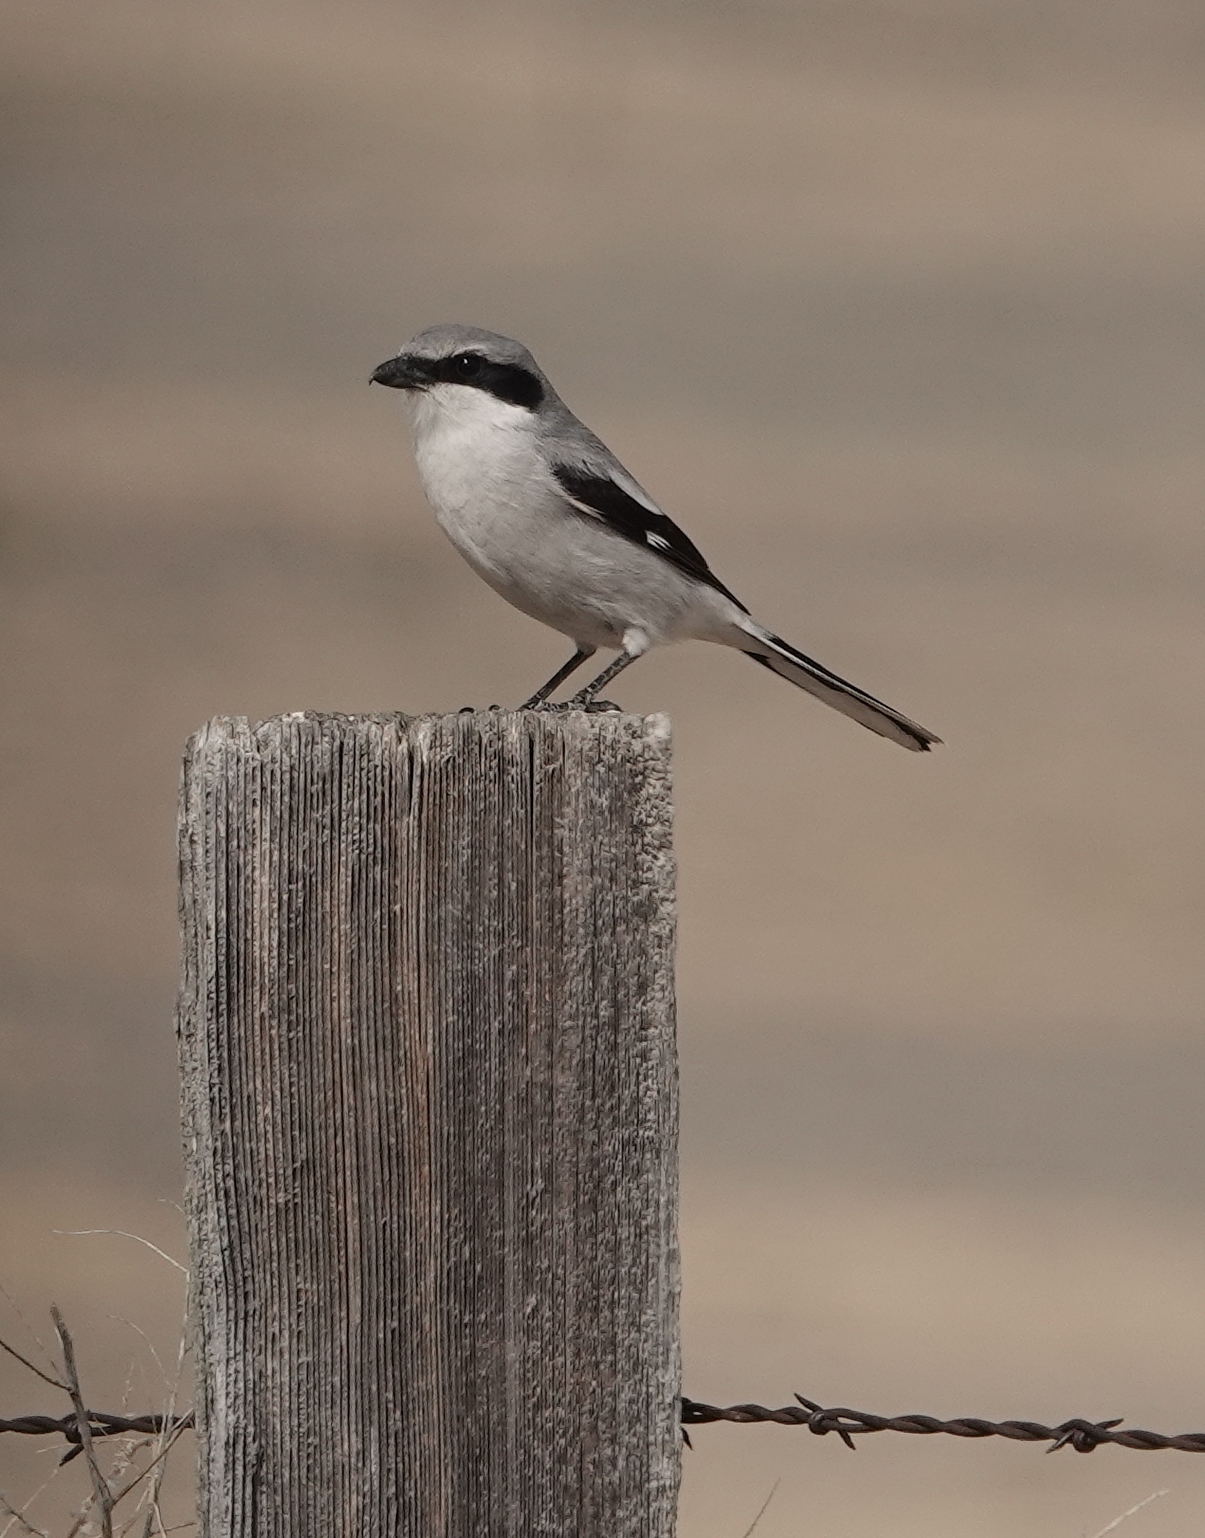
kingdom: Animalia
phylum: Chordata
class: Aves
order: Passeriformes
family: Laniidae
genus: Lanius
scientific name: Lanius ludovicianus
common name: Loggerhead shrike
